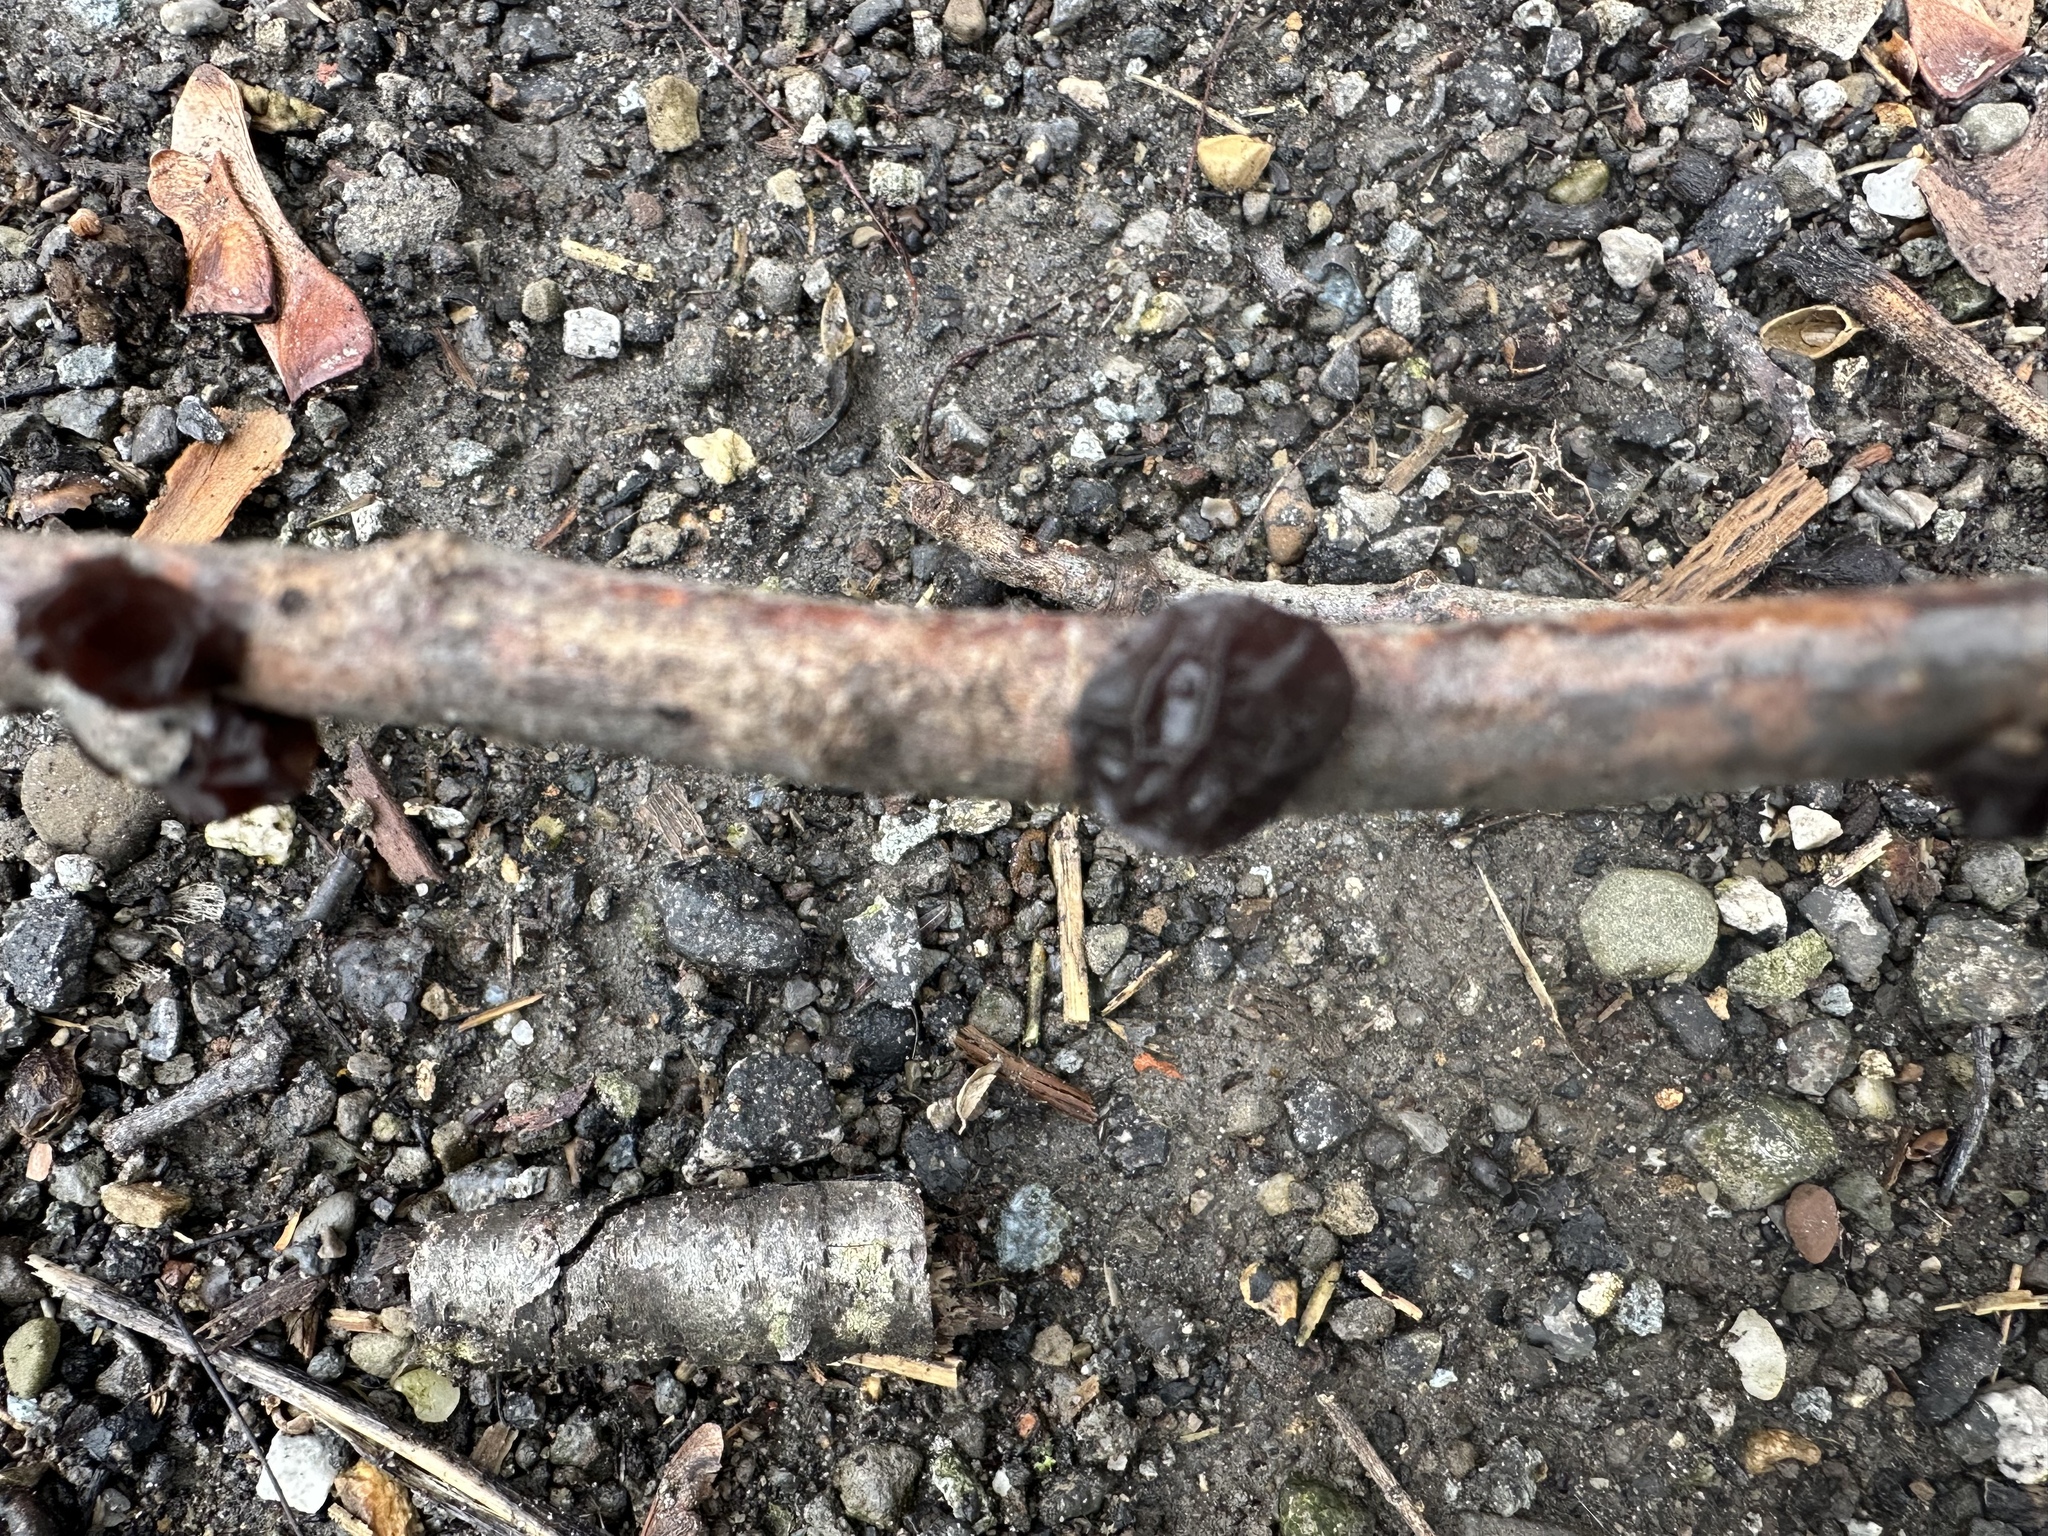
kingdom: Fungi
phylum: Basidiomycota
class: Agaricomycetes
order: Auriculariales
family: Auriculariaceae
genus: Exidia
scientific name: Exidia
